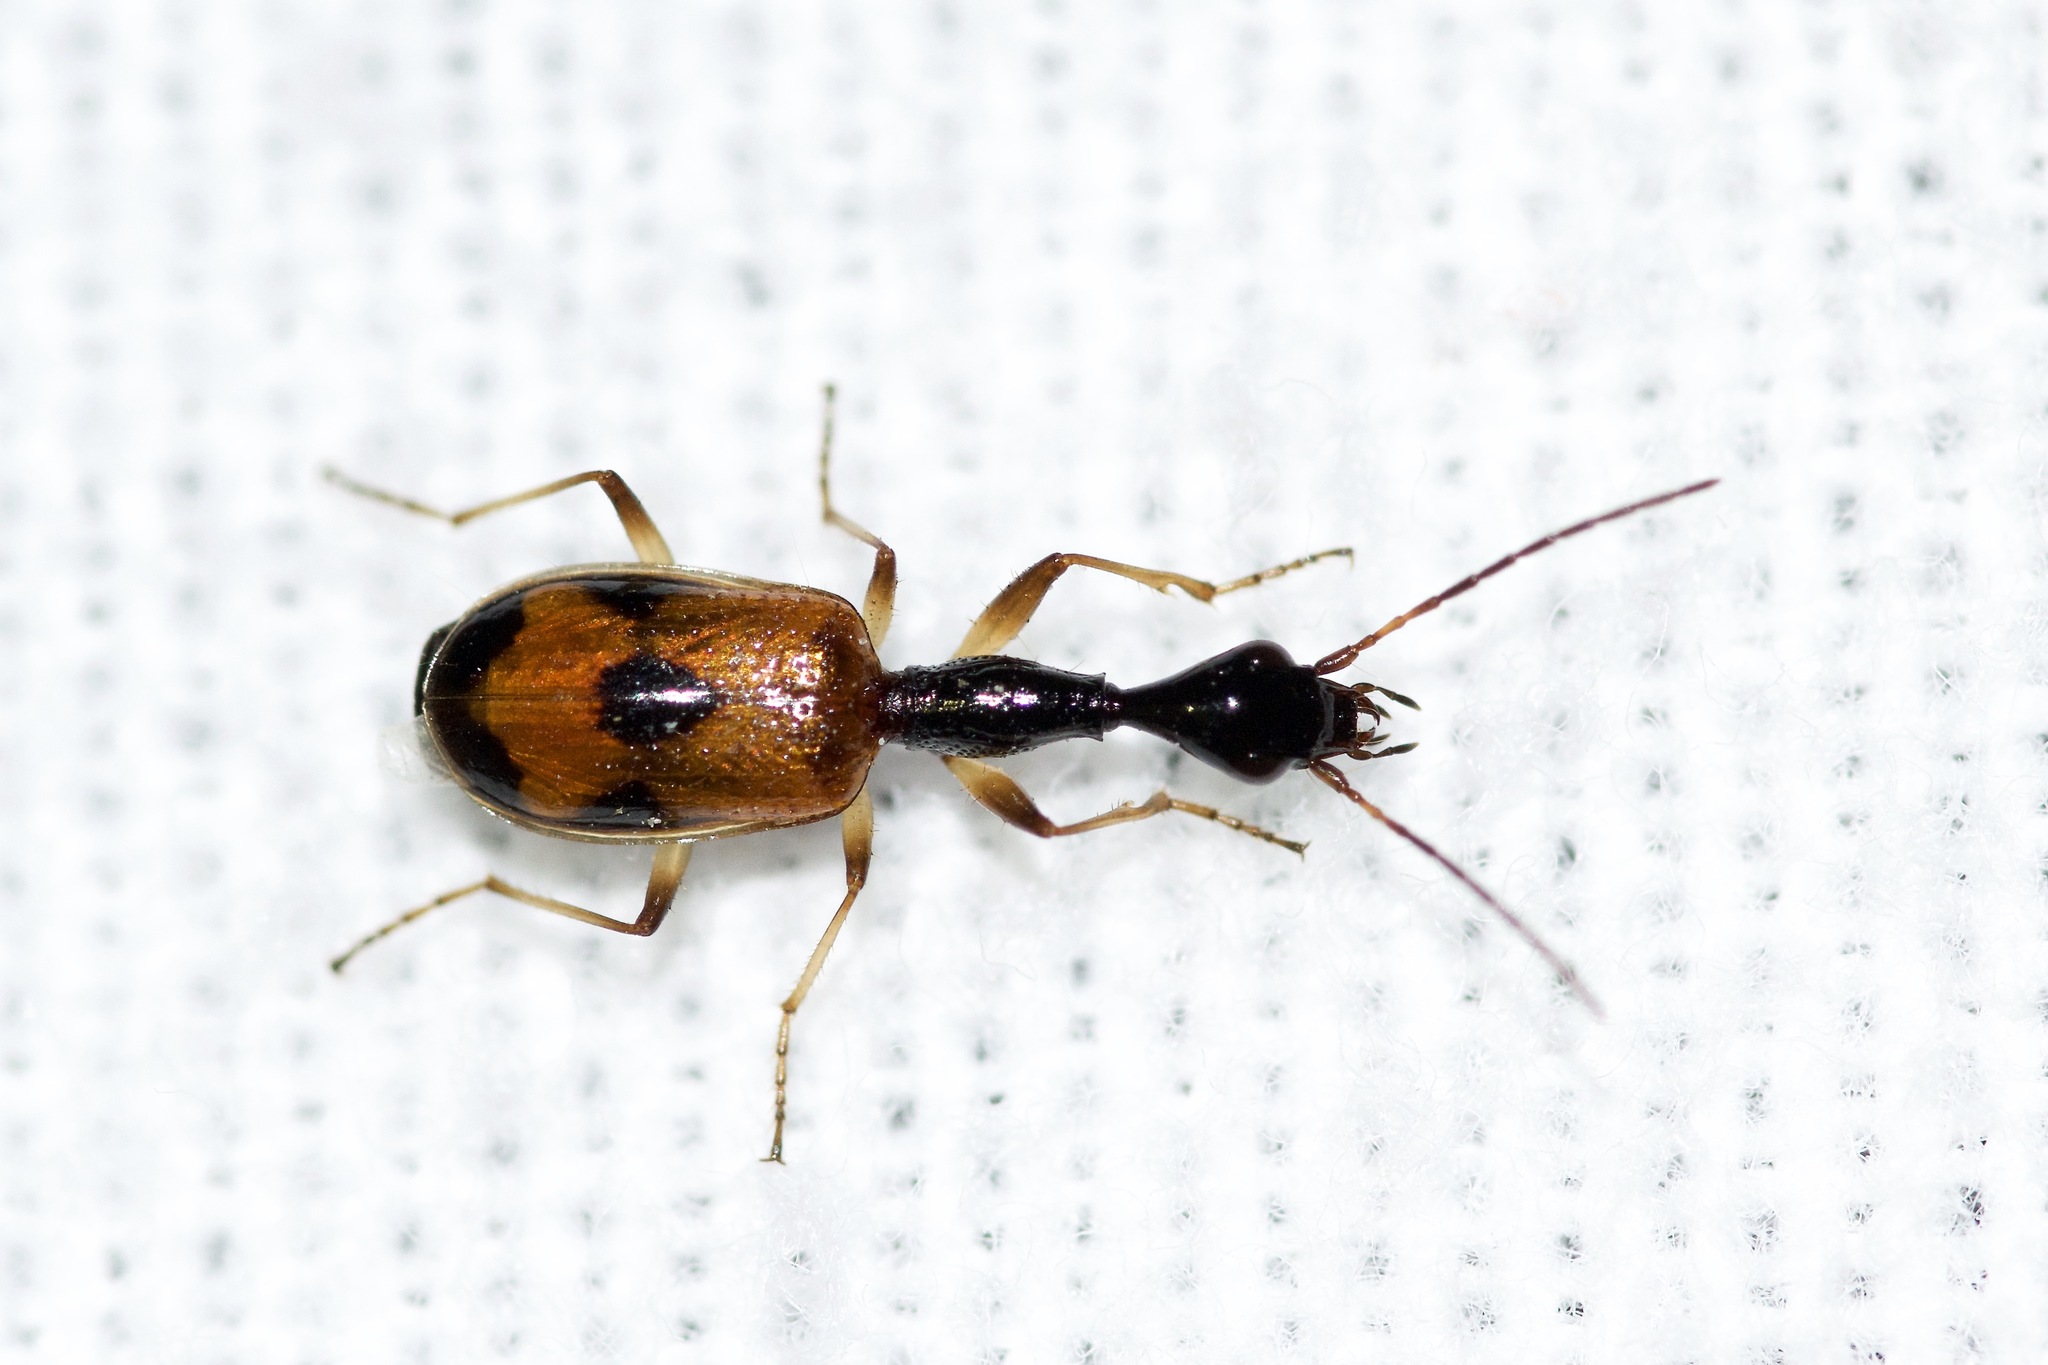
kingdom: Animalia
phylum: Arthropoda
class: Insecta
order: Coleoptera
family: Carabidae
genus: Colliuris
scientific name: Colliuris pensylvanica
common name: Long-necked ground beetle
